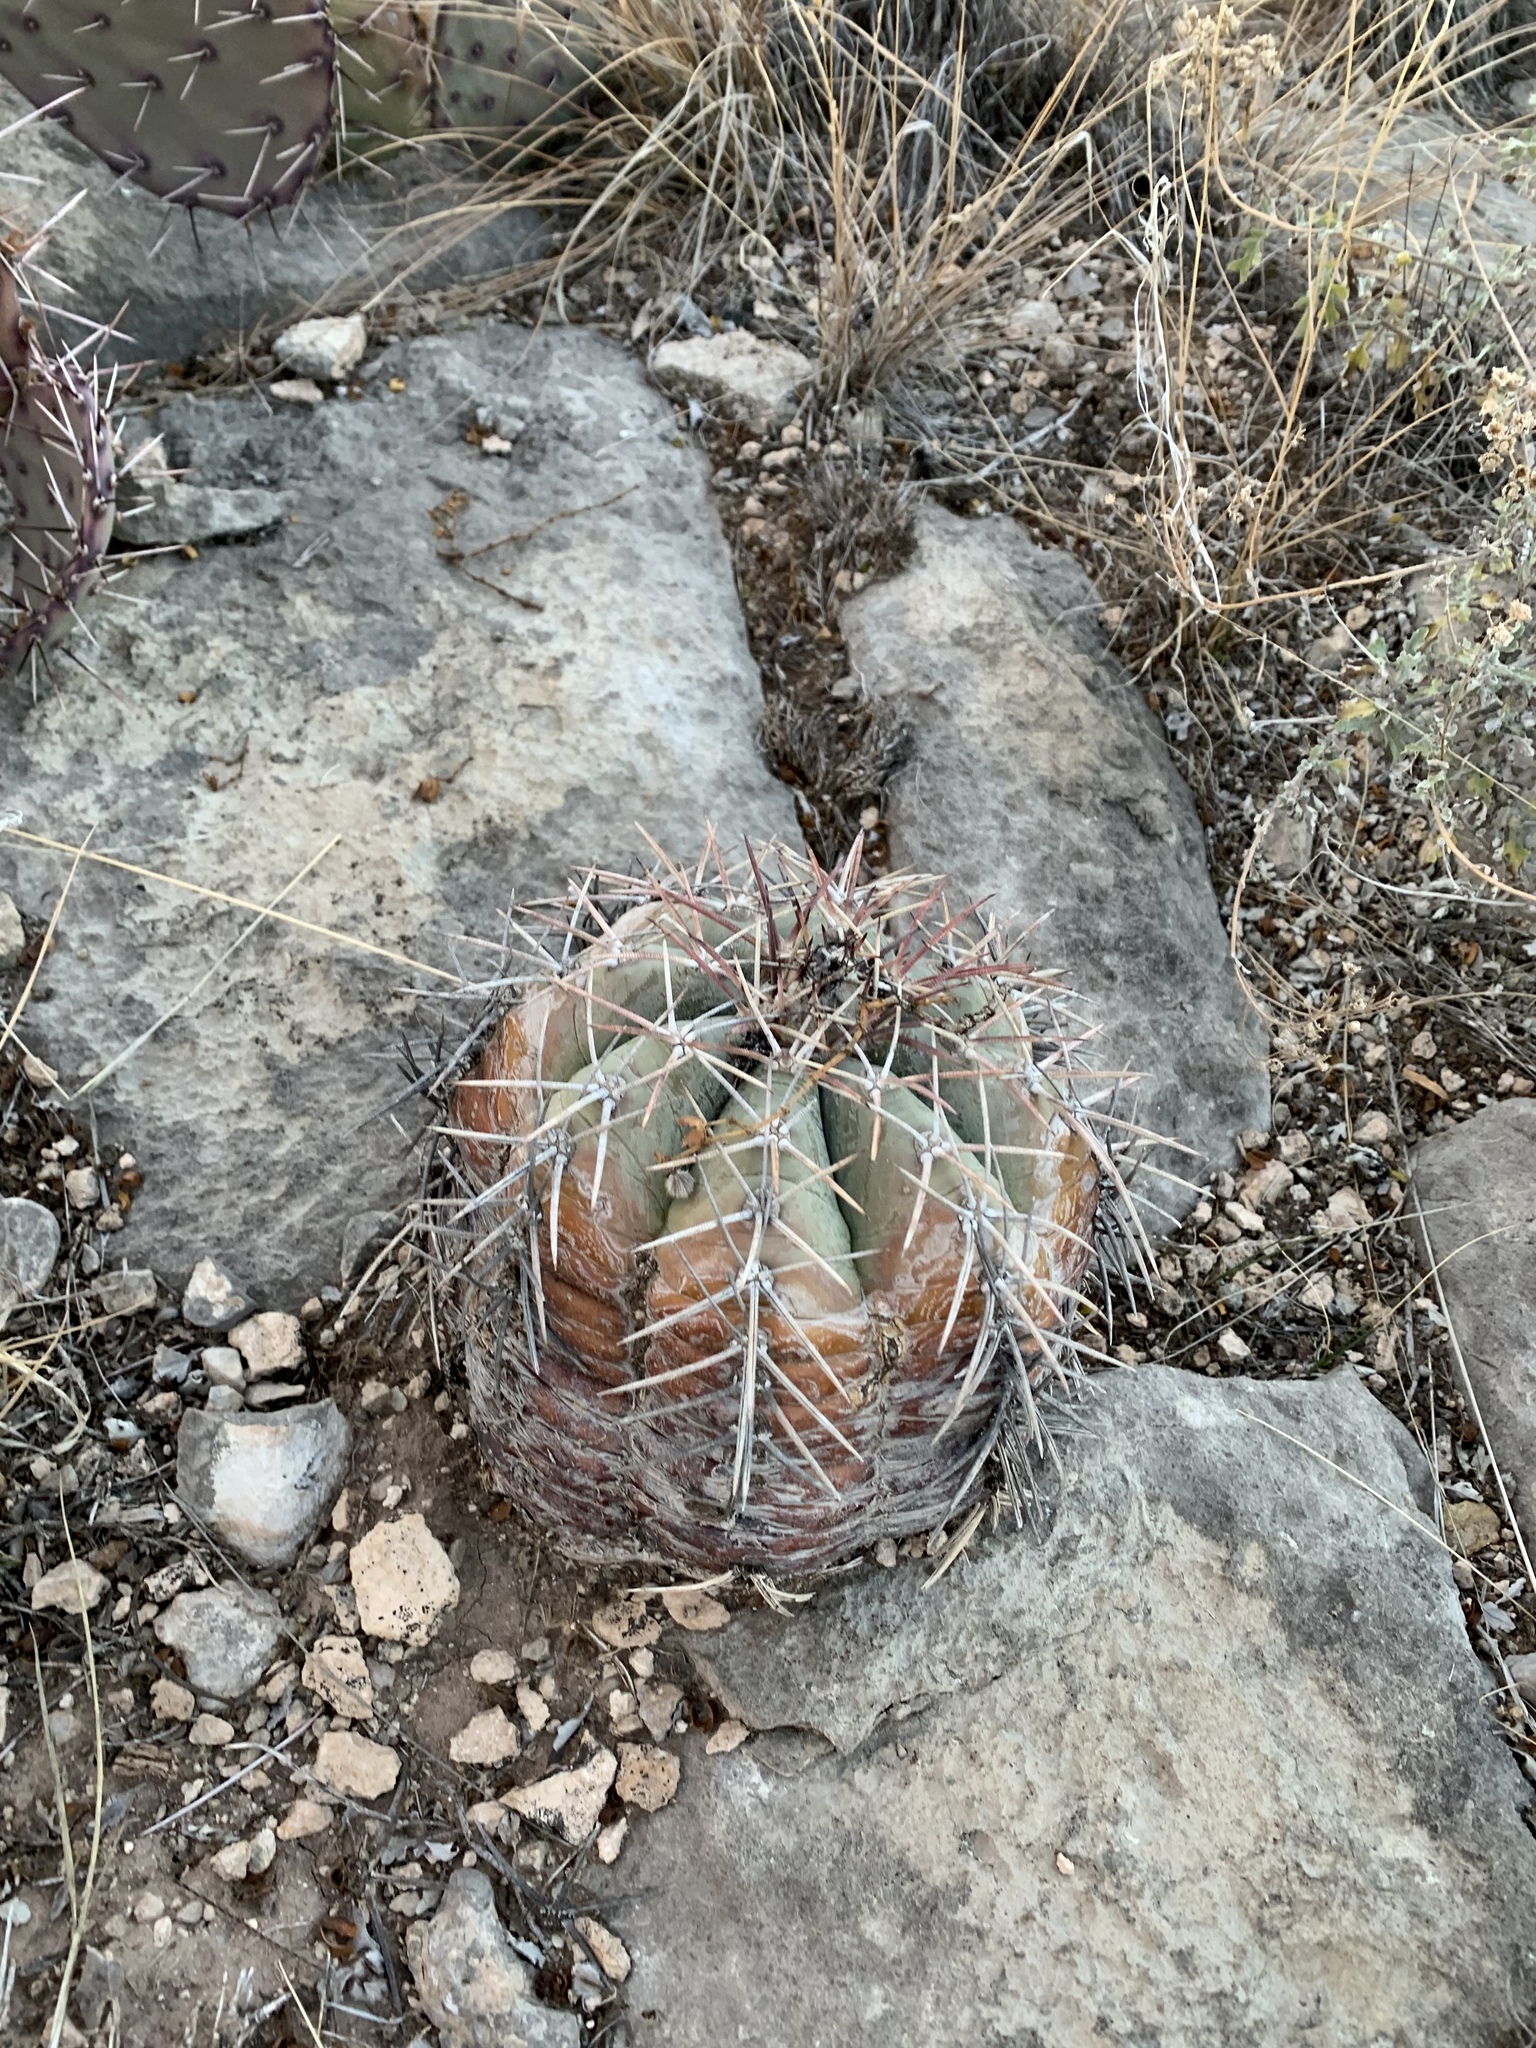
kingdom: Plantae
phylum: Tracheophyta
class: Magnoliopsida
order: Caryophyllales
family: Cactaceae
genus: Echinocactus
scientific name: Echinocactus horizonthalonius
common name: Devilshead
